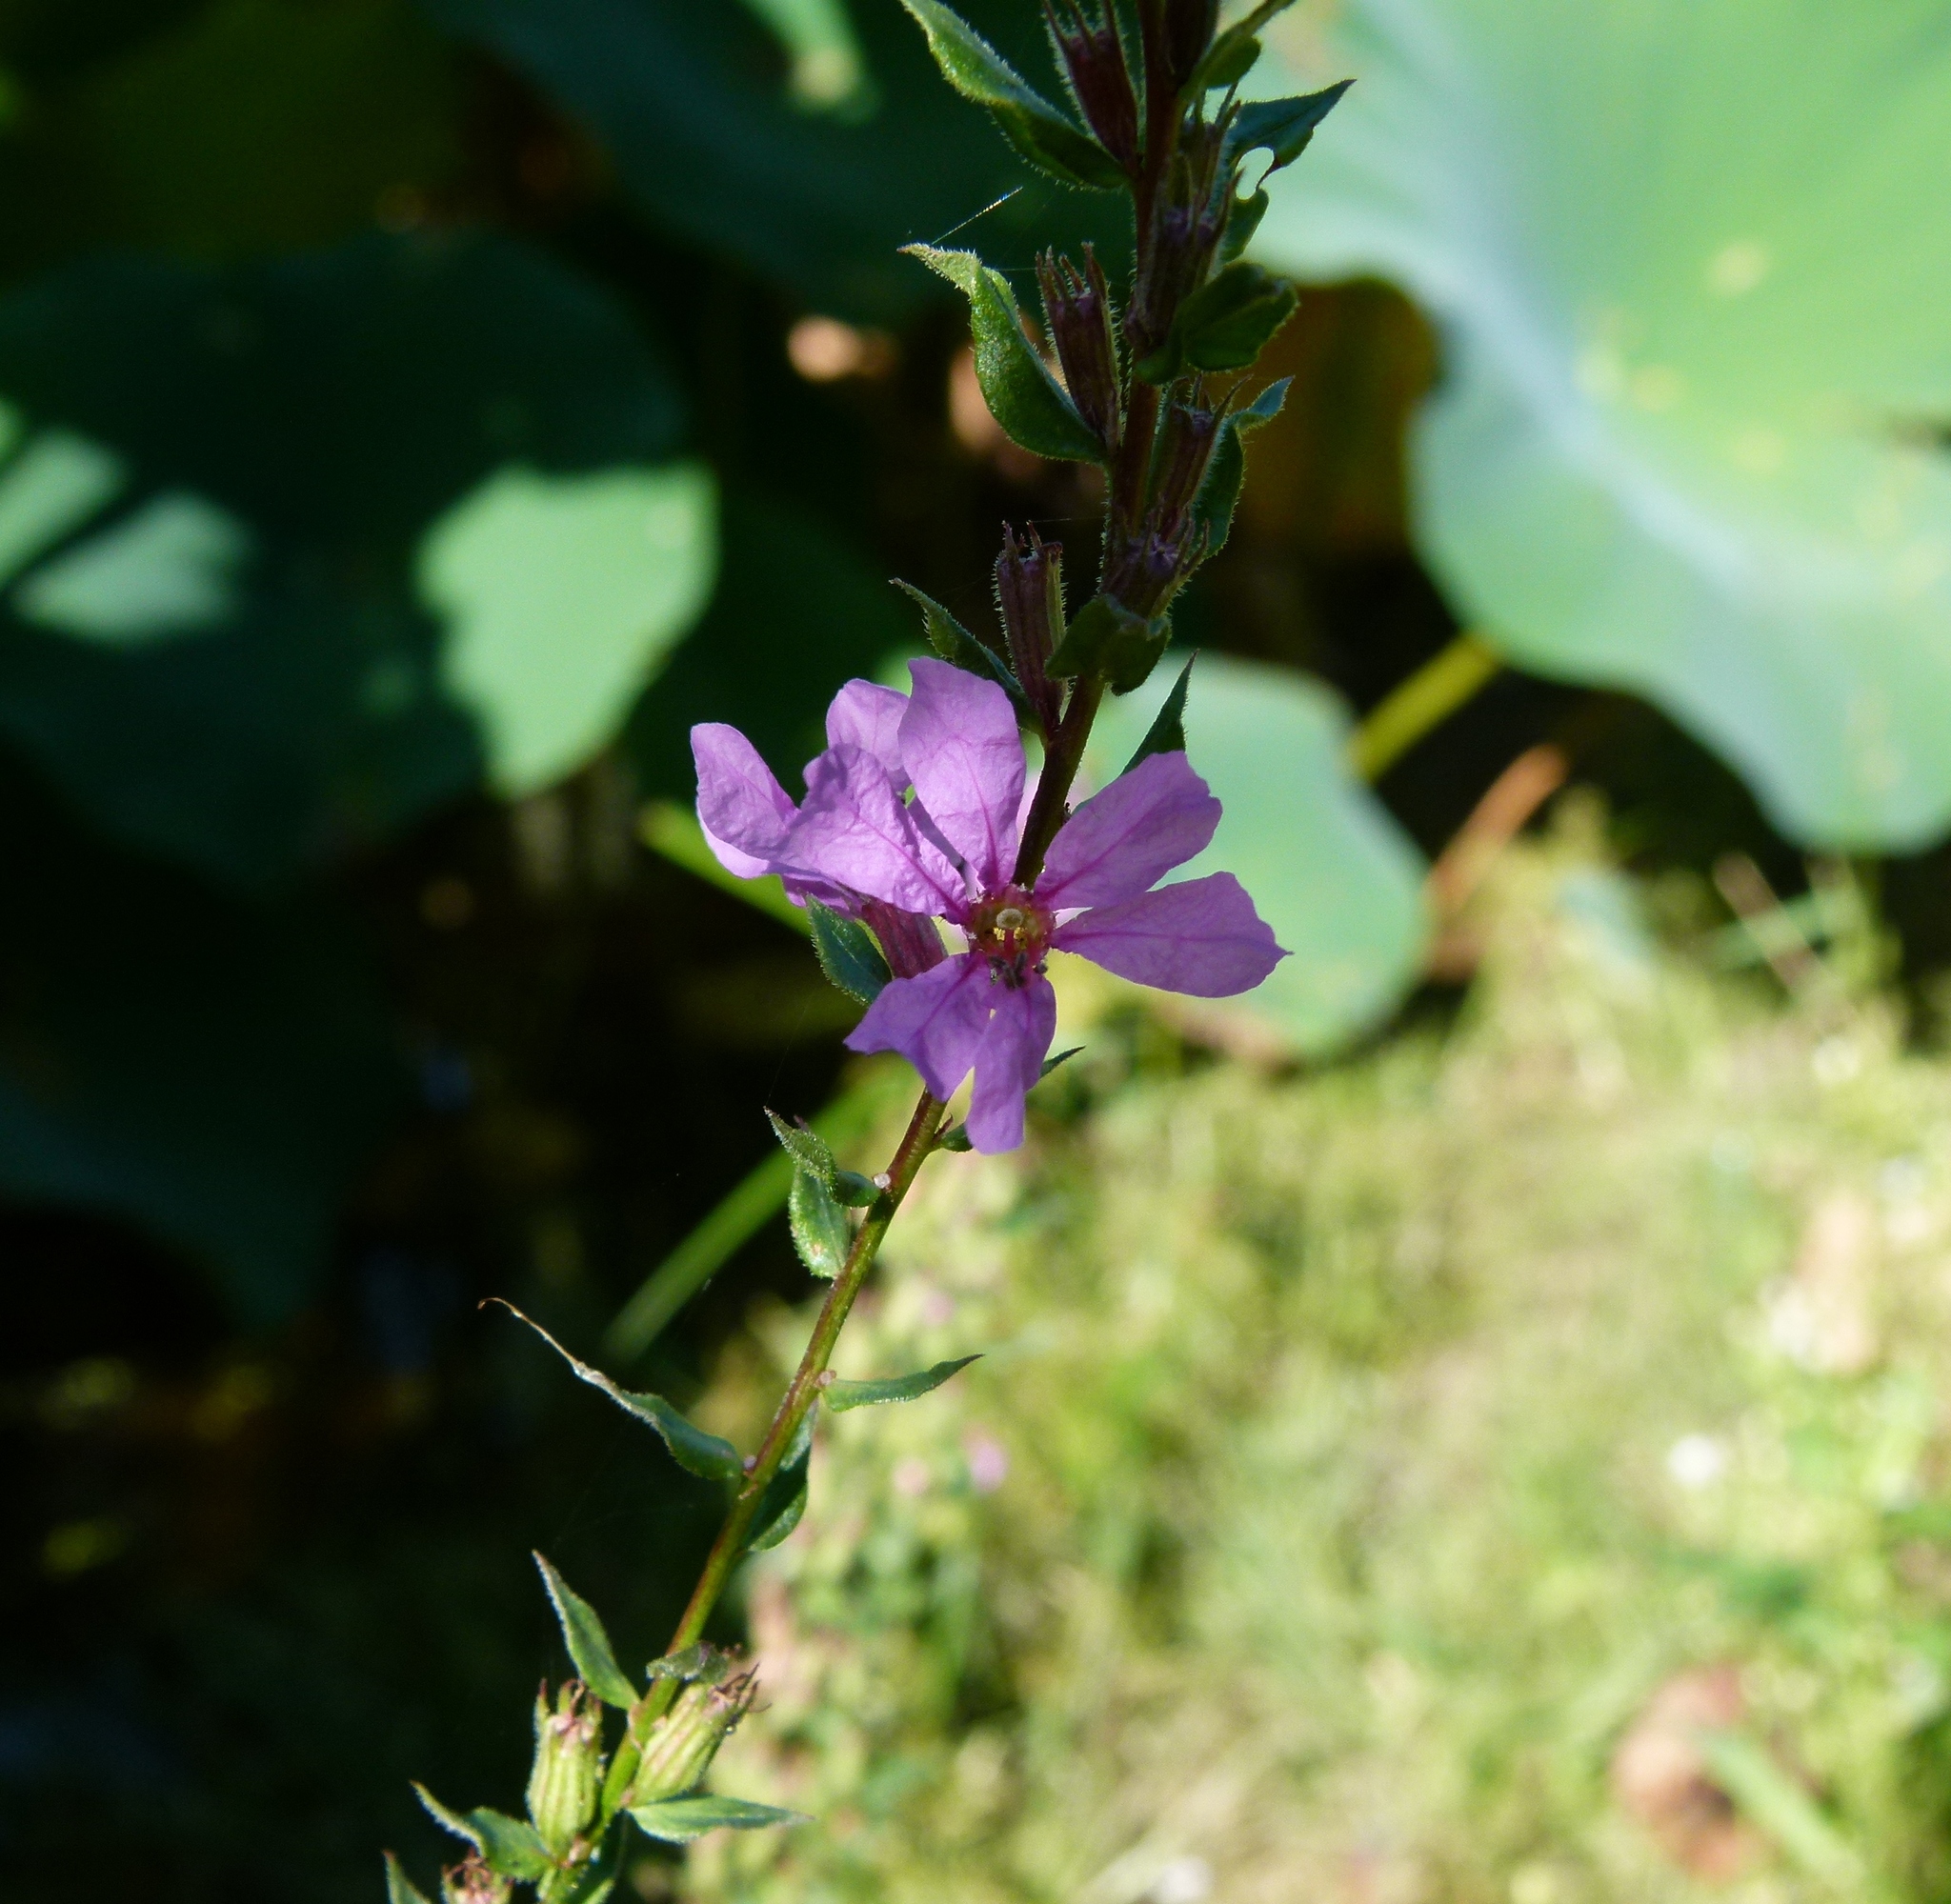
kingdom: Plantae
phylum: Tracheophyta
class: Magnoliopsida
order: Myrtales
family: Lythraceae
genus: Lythrum
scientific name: Lythrum salicaria
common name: Purple loosestrife
